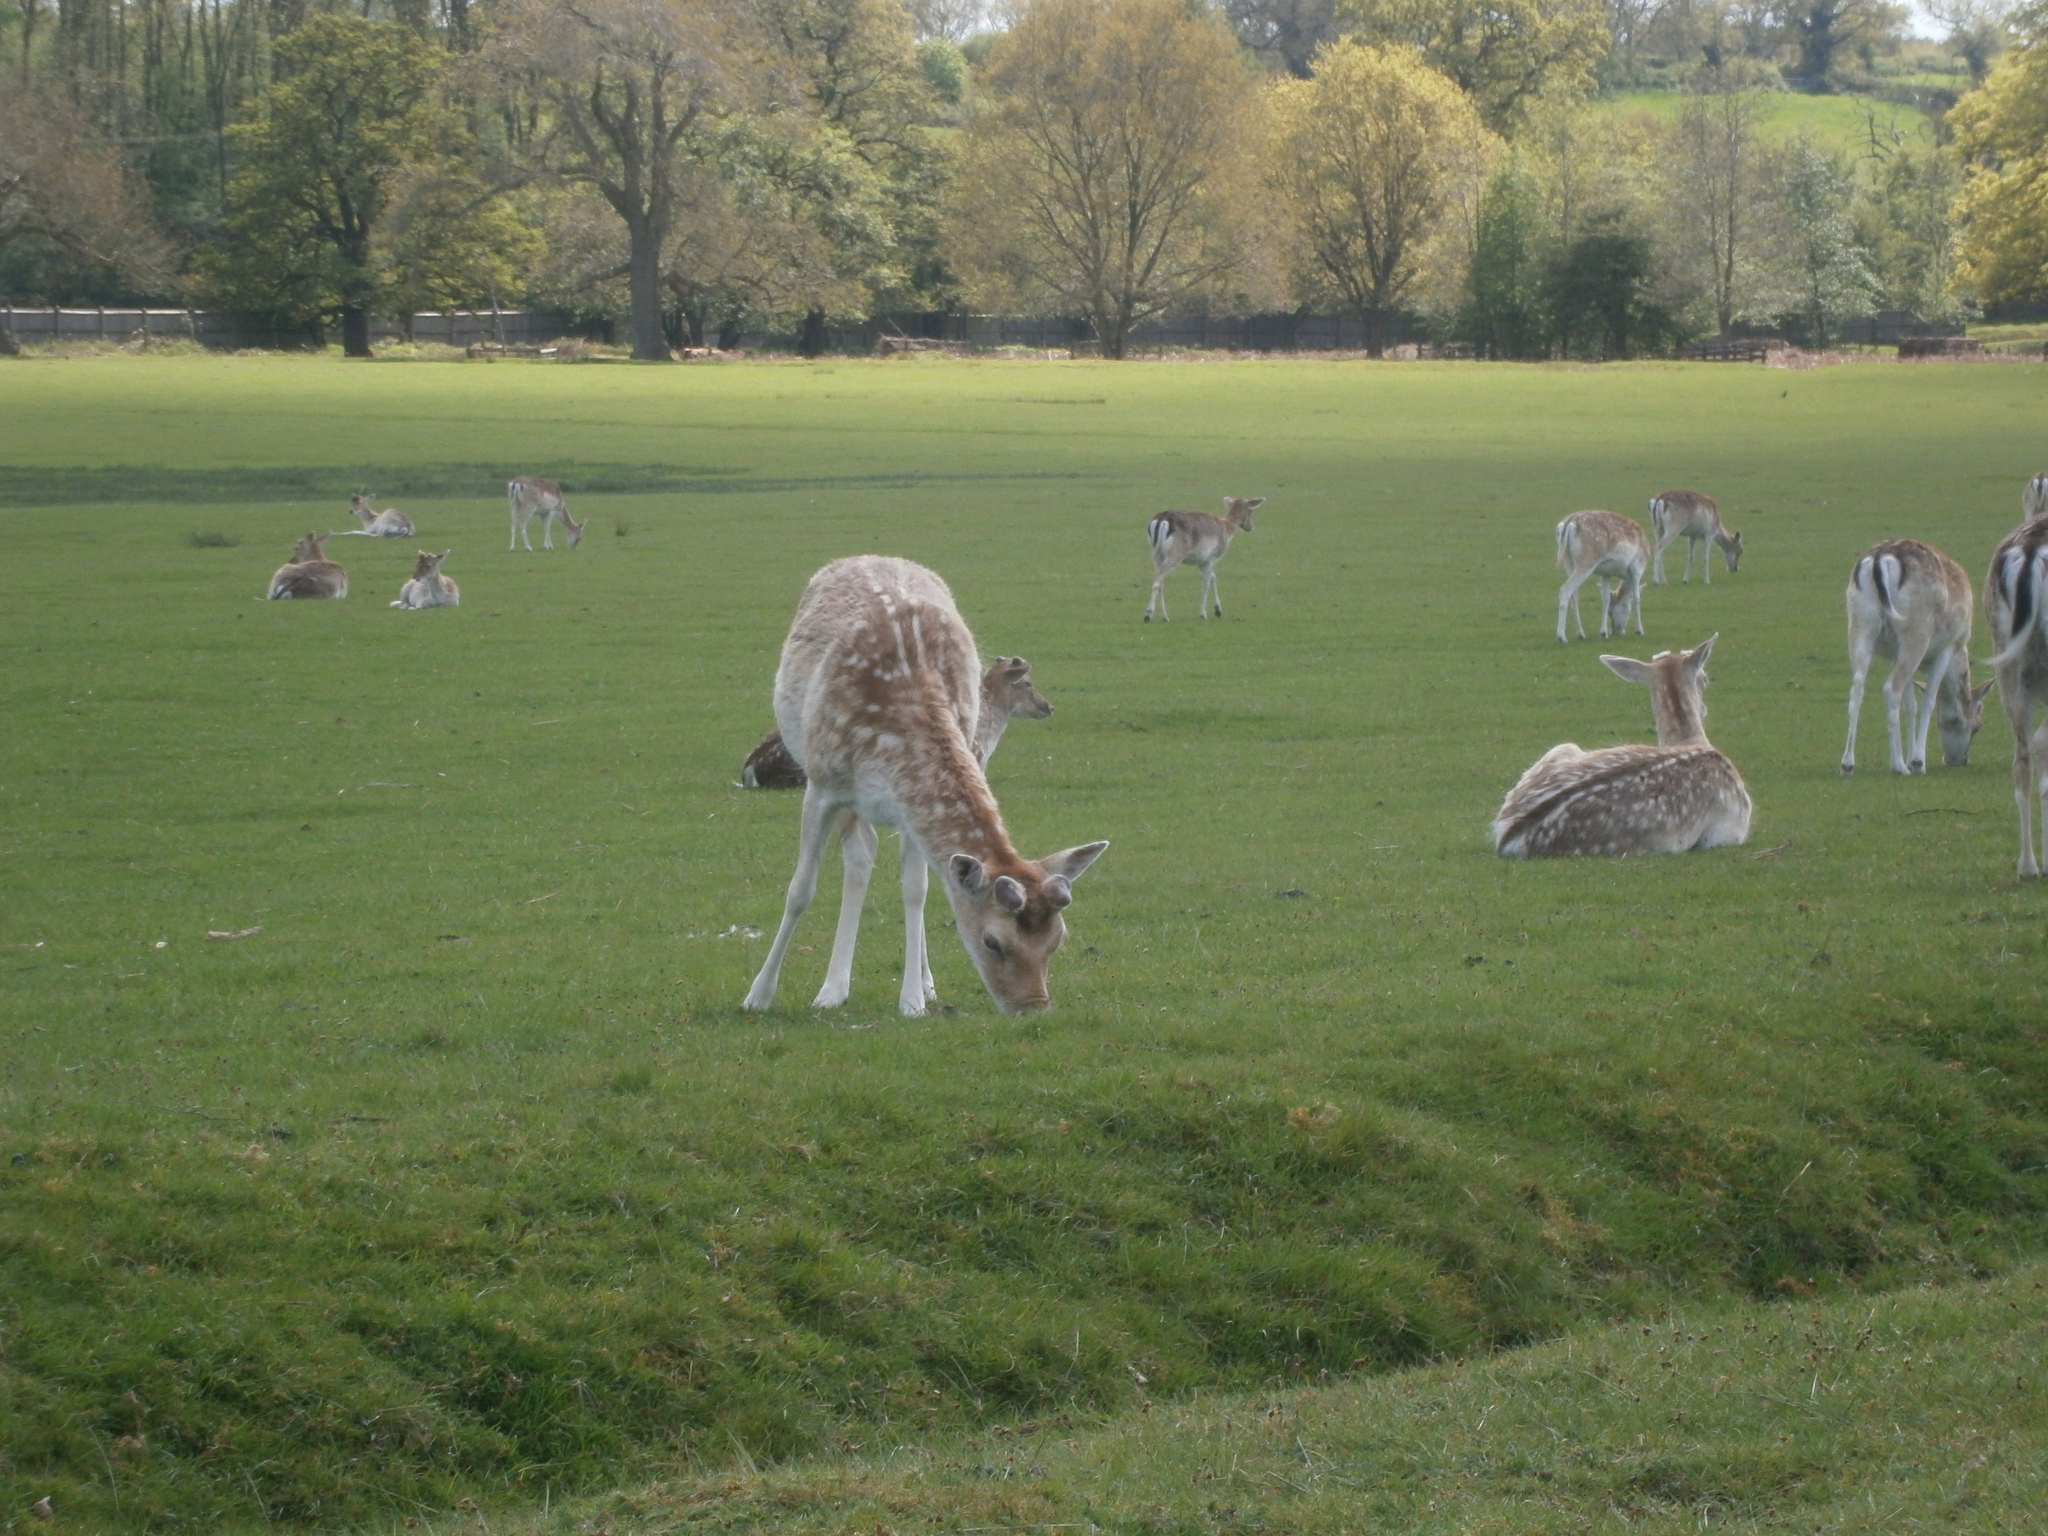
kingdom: Animalia
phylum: Chordata
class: Mammalia
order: Artiodactyla
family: Cervidae
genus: Dama
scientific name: Dama dama
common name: Fallow deer
